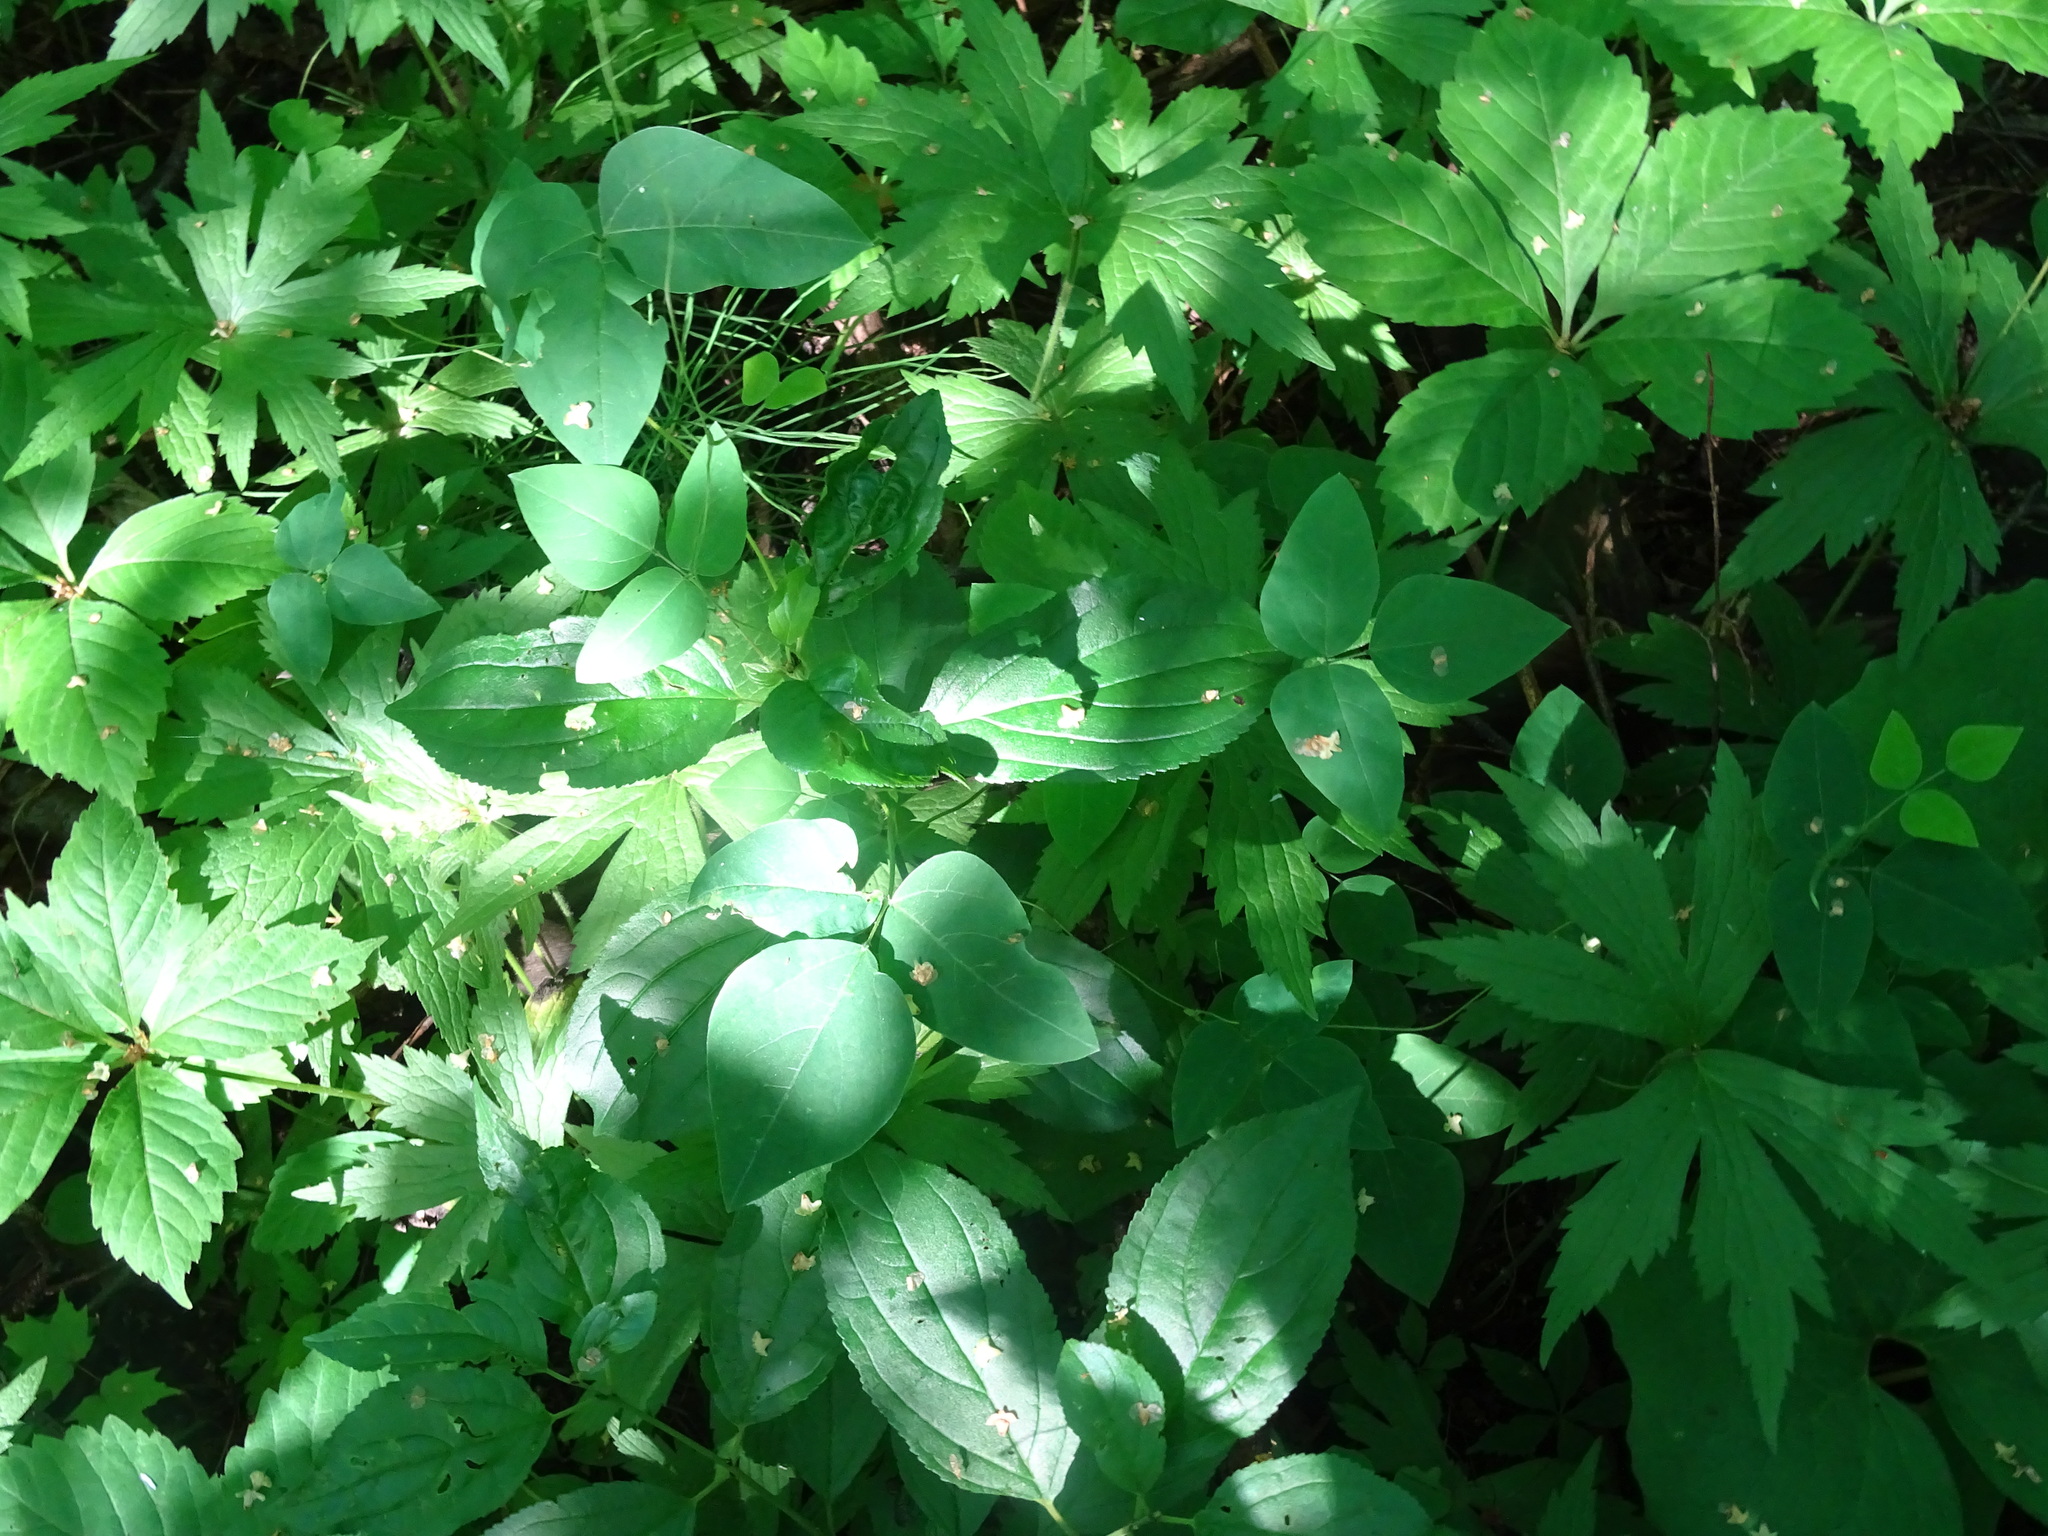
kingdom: Plantae
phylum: Tracheophyta
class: Magnoliopsida
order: Fabales
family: Fabaceae
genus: Amphicarpaea
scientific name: Amphicarpaea bracteata
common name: American hog peanut
